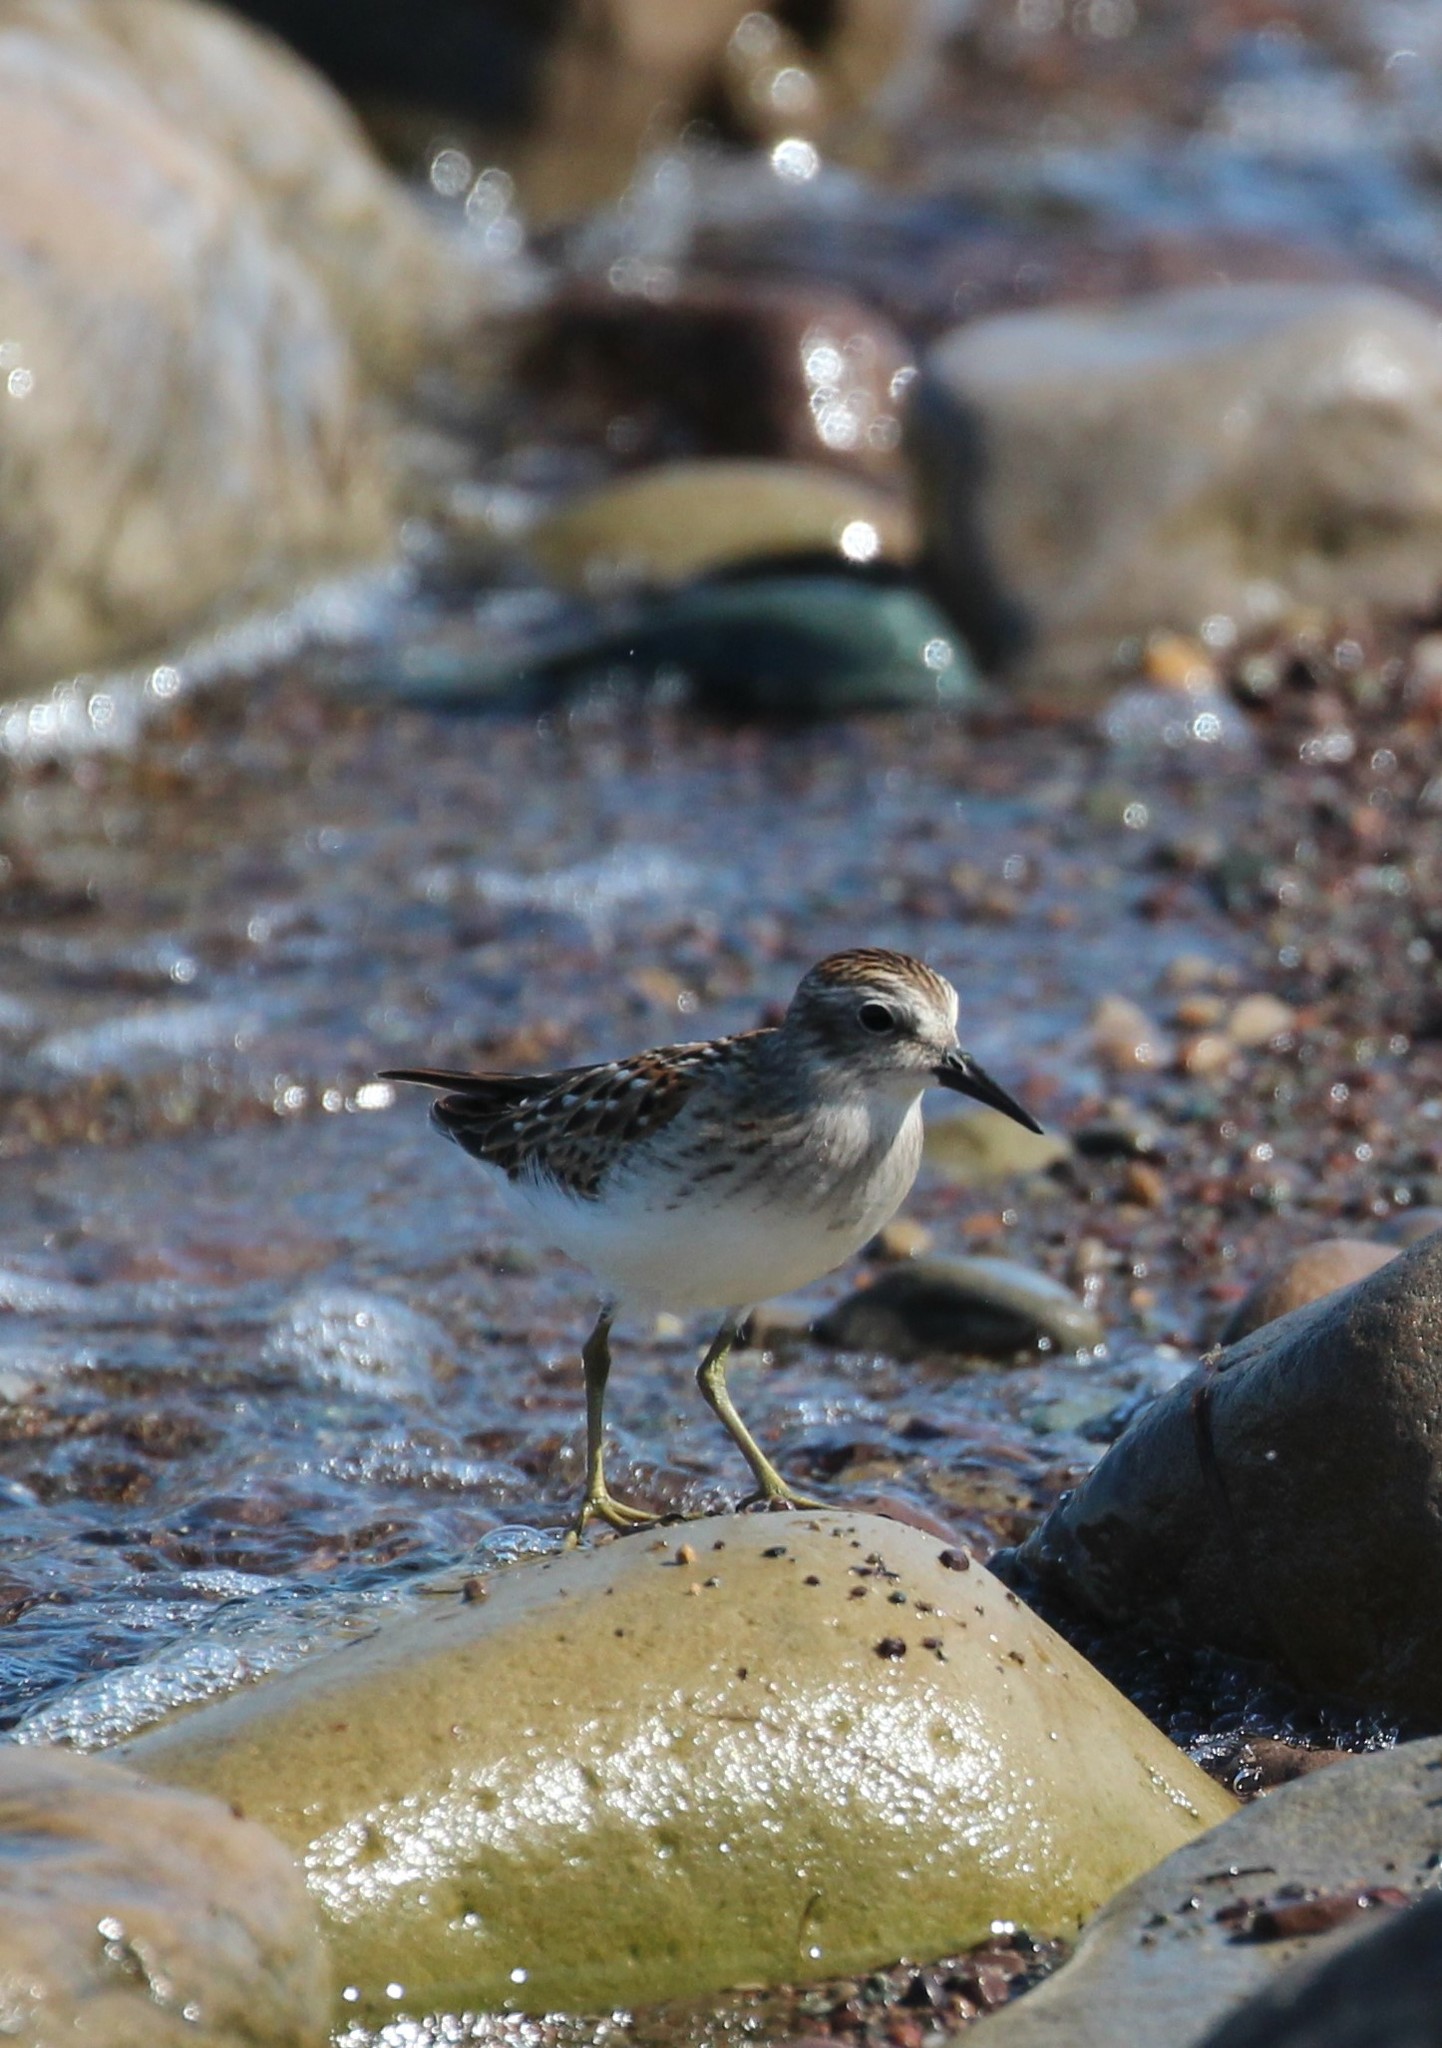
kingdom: Animalia
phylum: Chordata
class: Aves
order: Charadriiformes
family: Scolopacidae
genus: Calidris
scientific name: Calidris minutilla
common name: Least sandpiper
